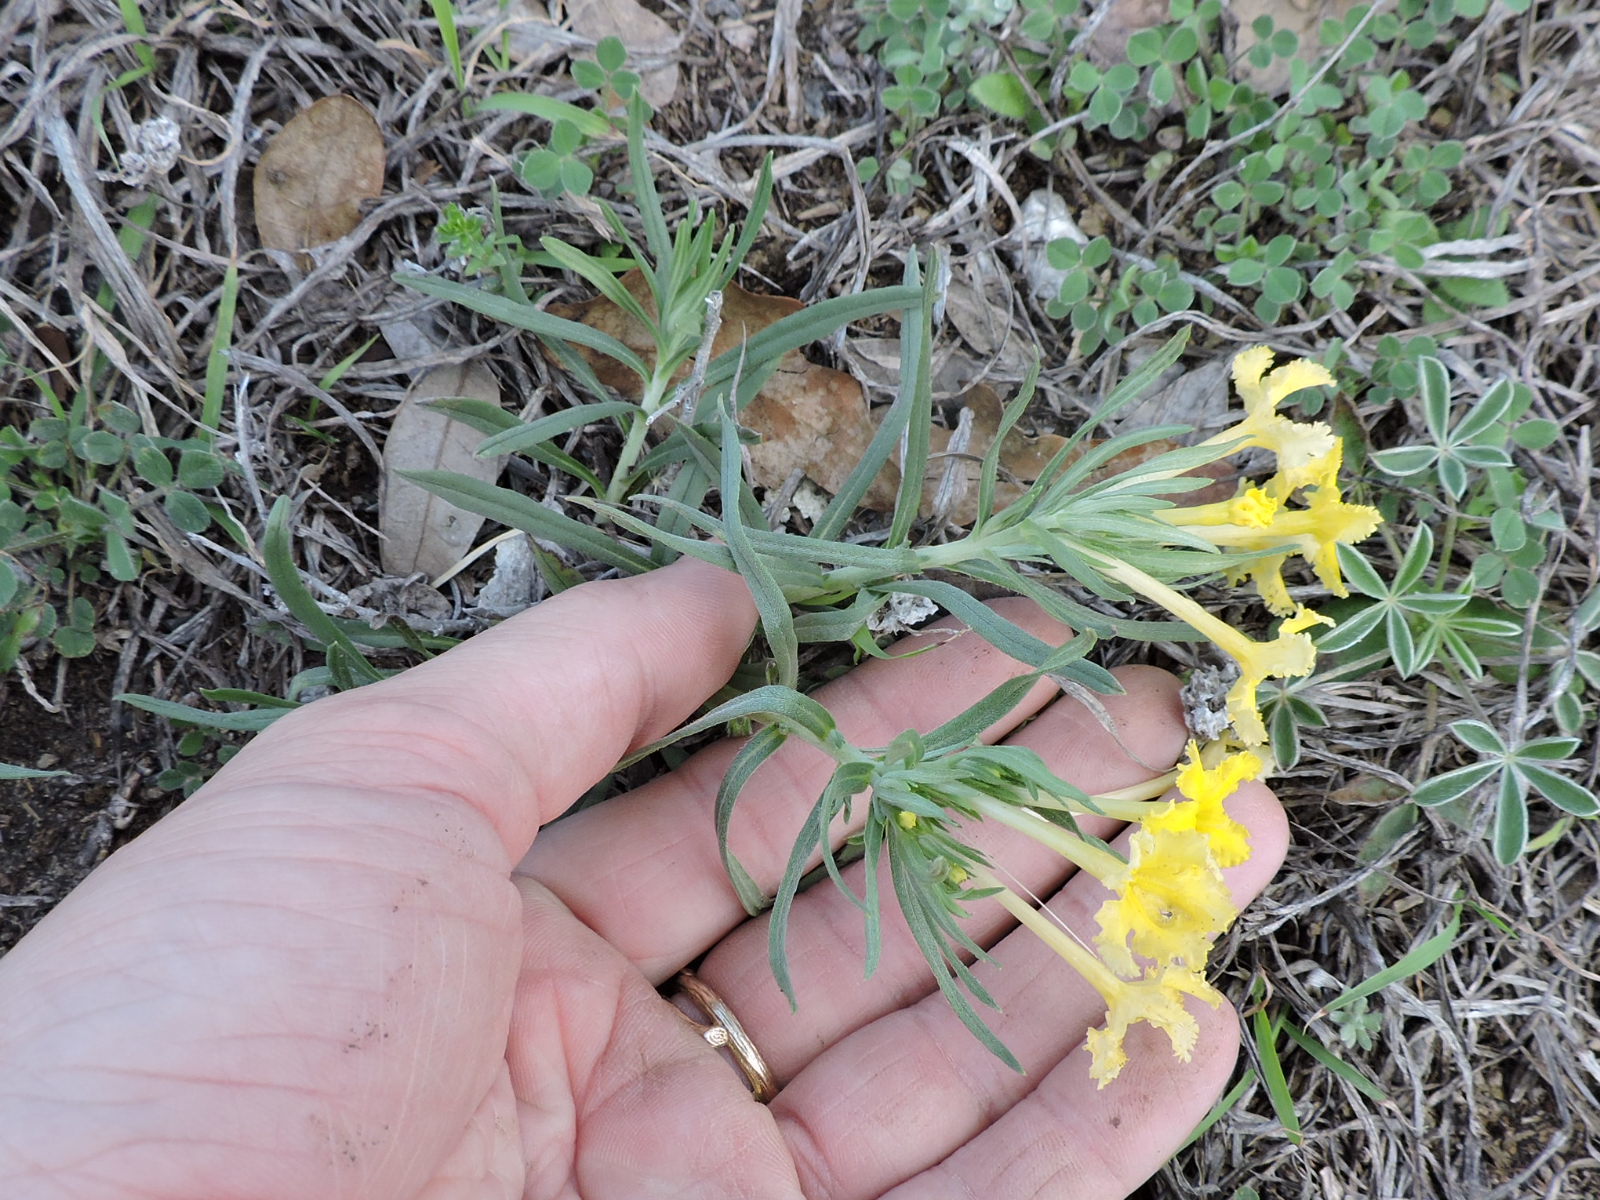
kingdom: Plantae
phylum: Tracheophyta
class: Magnoliopsida
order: Boraginales
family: Boraginaceae
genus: Lithospermum
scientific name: Lithospermum incisum
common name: Fringed gromwell
